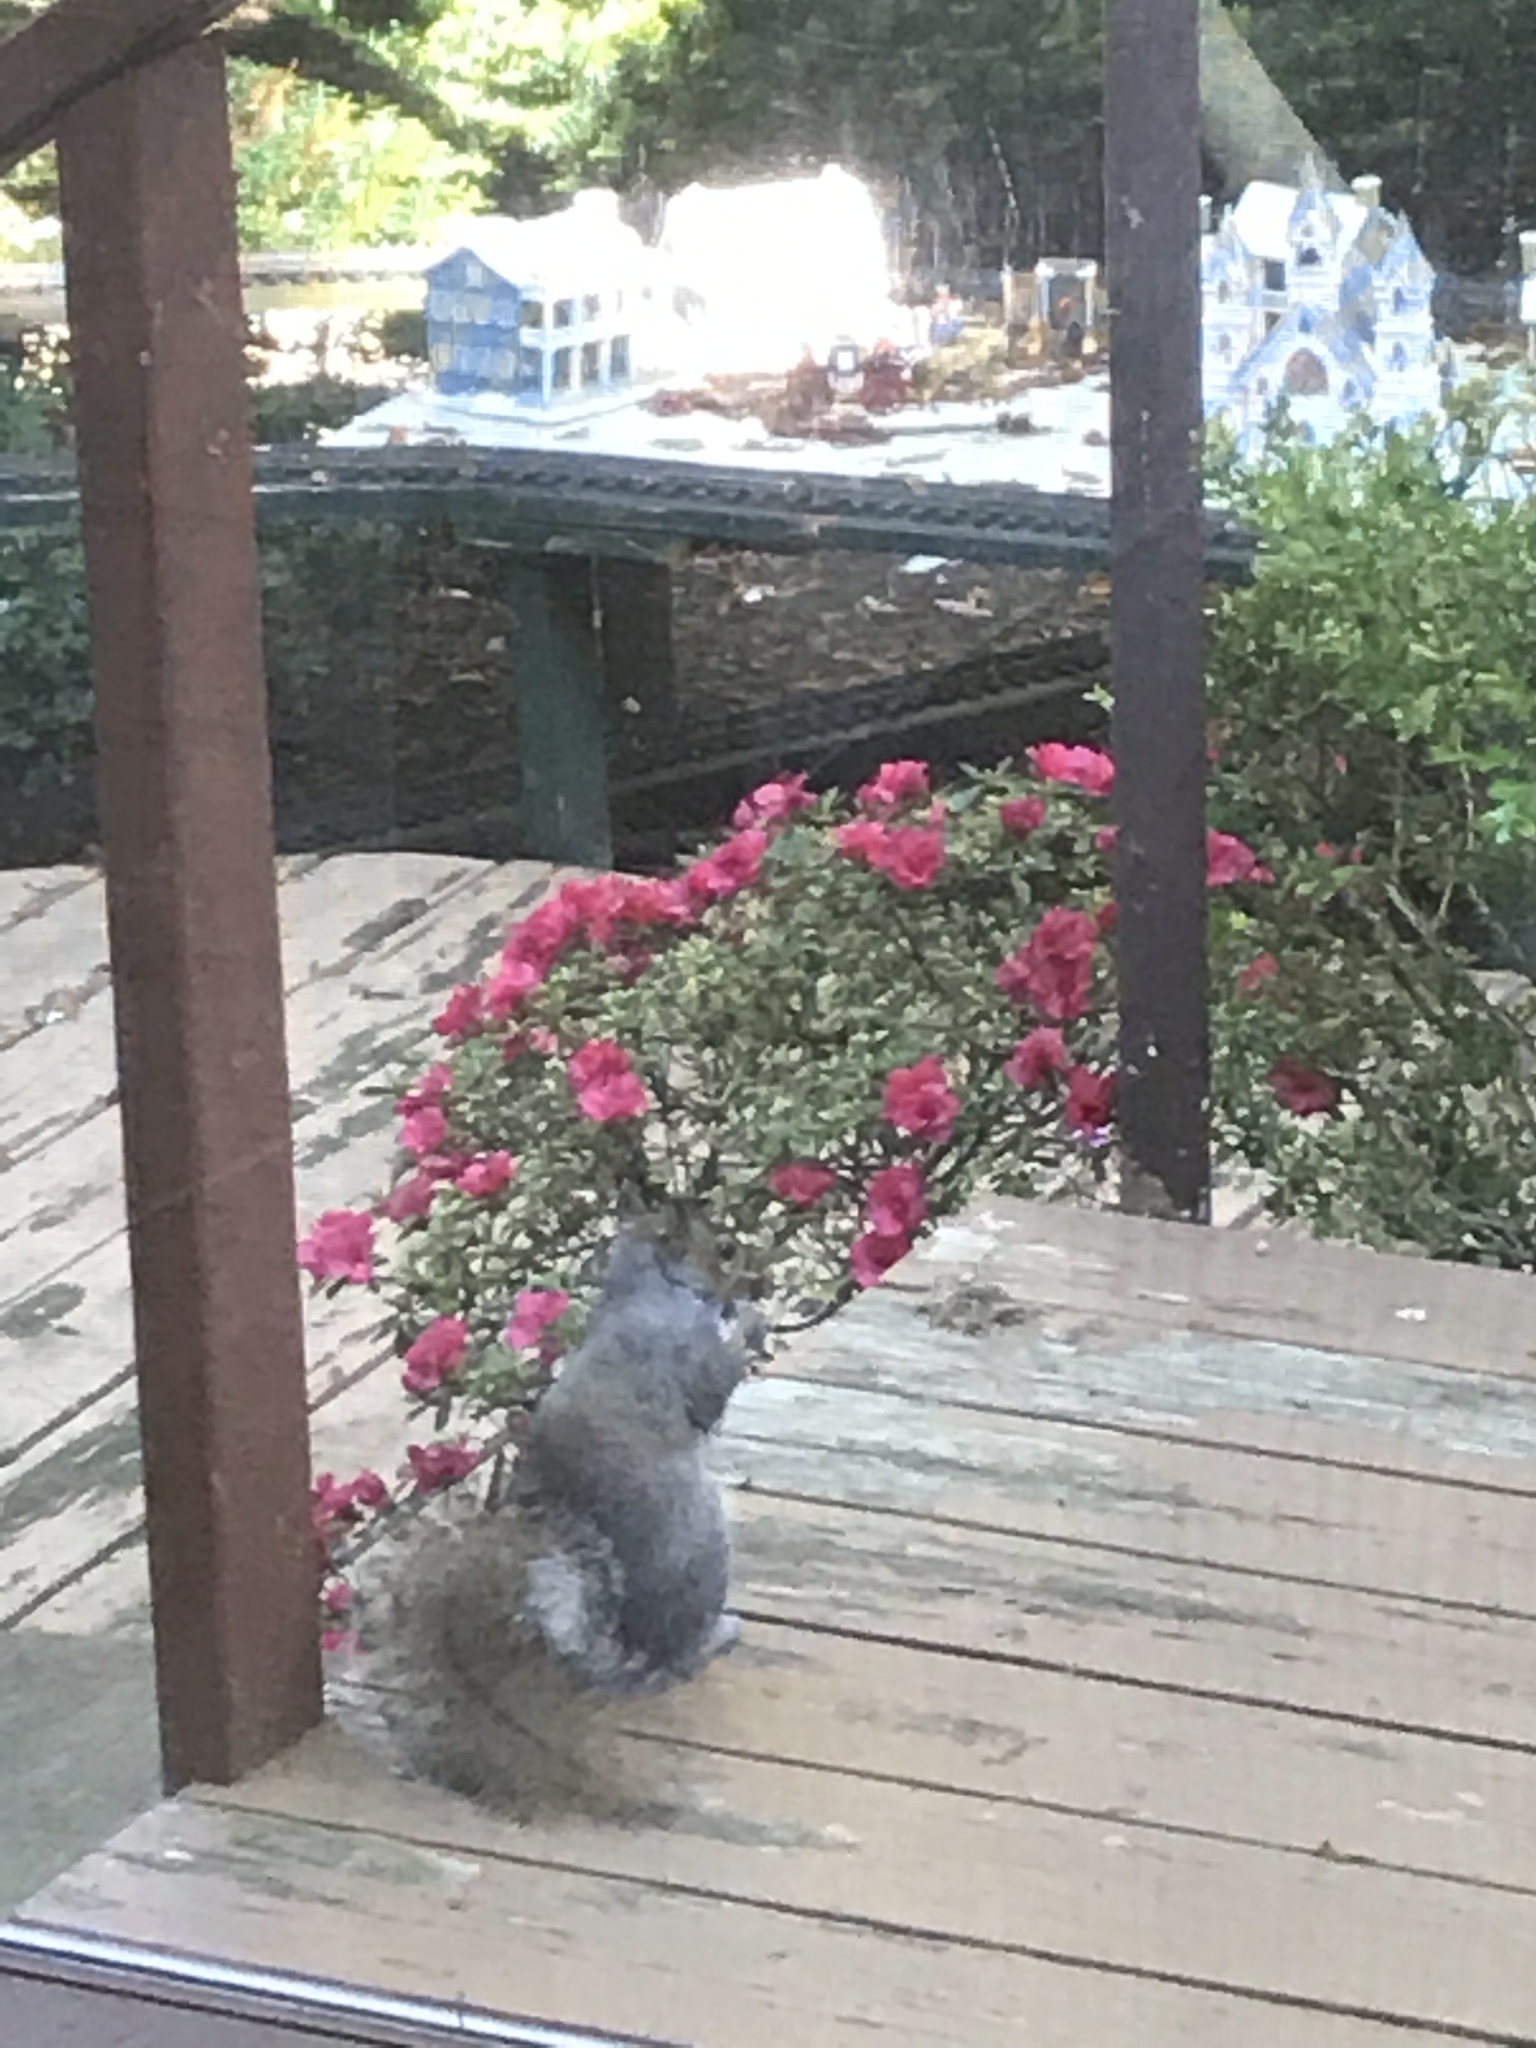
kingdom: Animalia
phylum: Chordata
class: Mammalia
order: Rodentia
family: Sciuridae
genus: Sciurus
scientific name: Sciurus carolinensis
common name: Eastern gray squirrel
